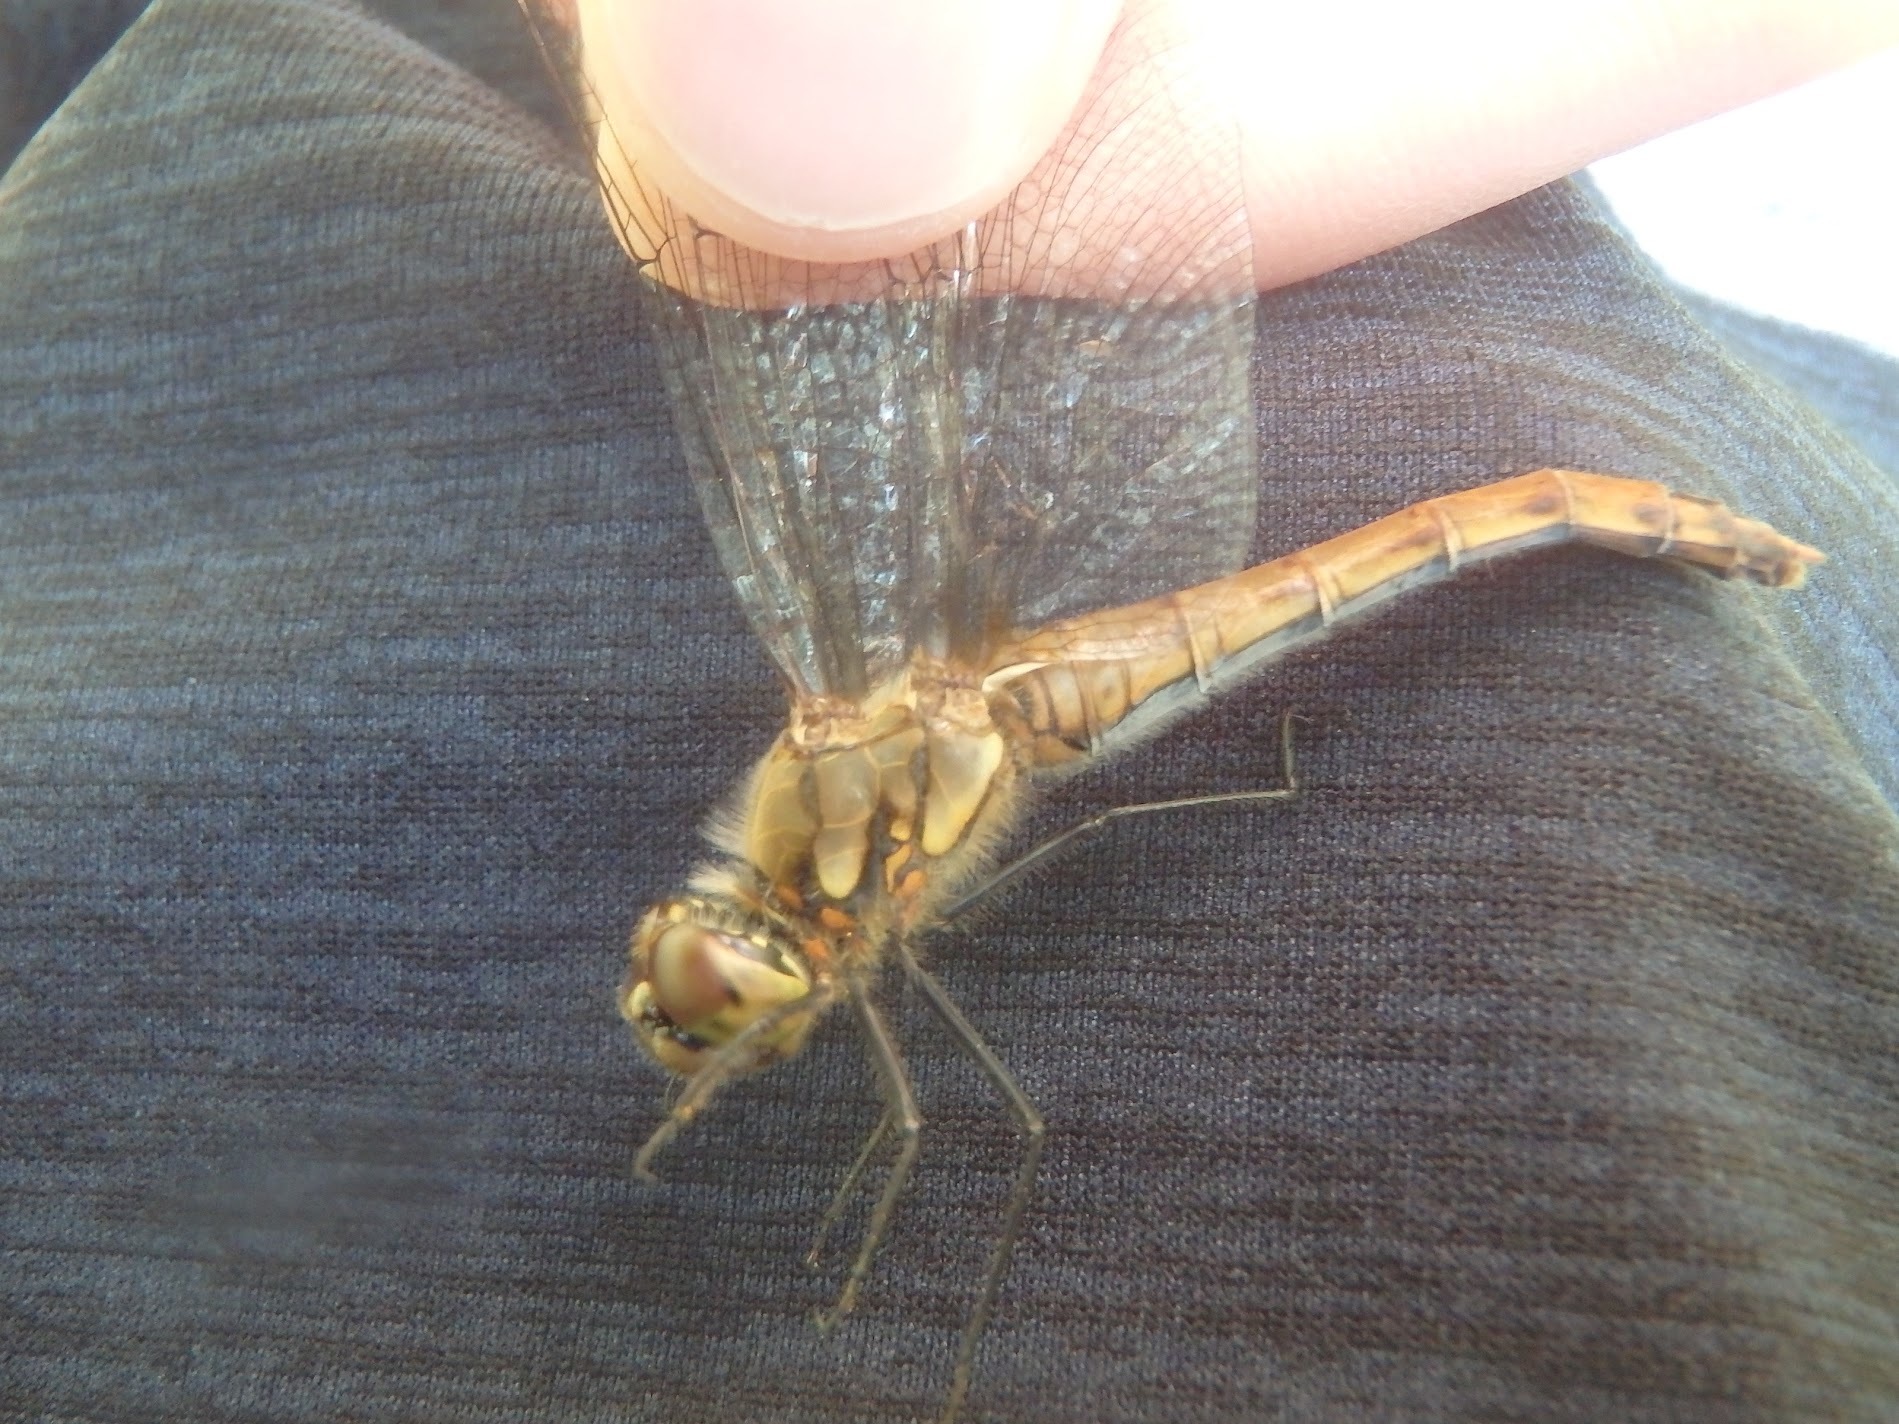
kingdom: Animalia
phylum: Arthropoda
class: Insecta
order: Odonata
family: Libellulidae
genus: Sympetrum
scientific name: Sympetrum frequens
